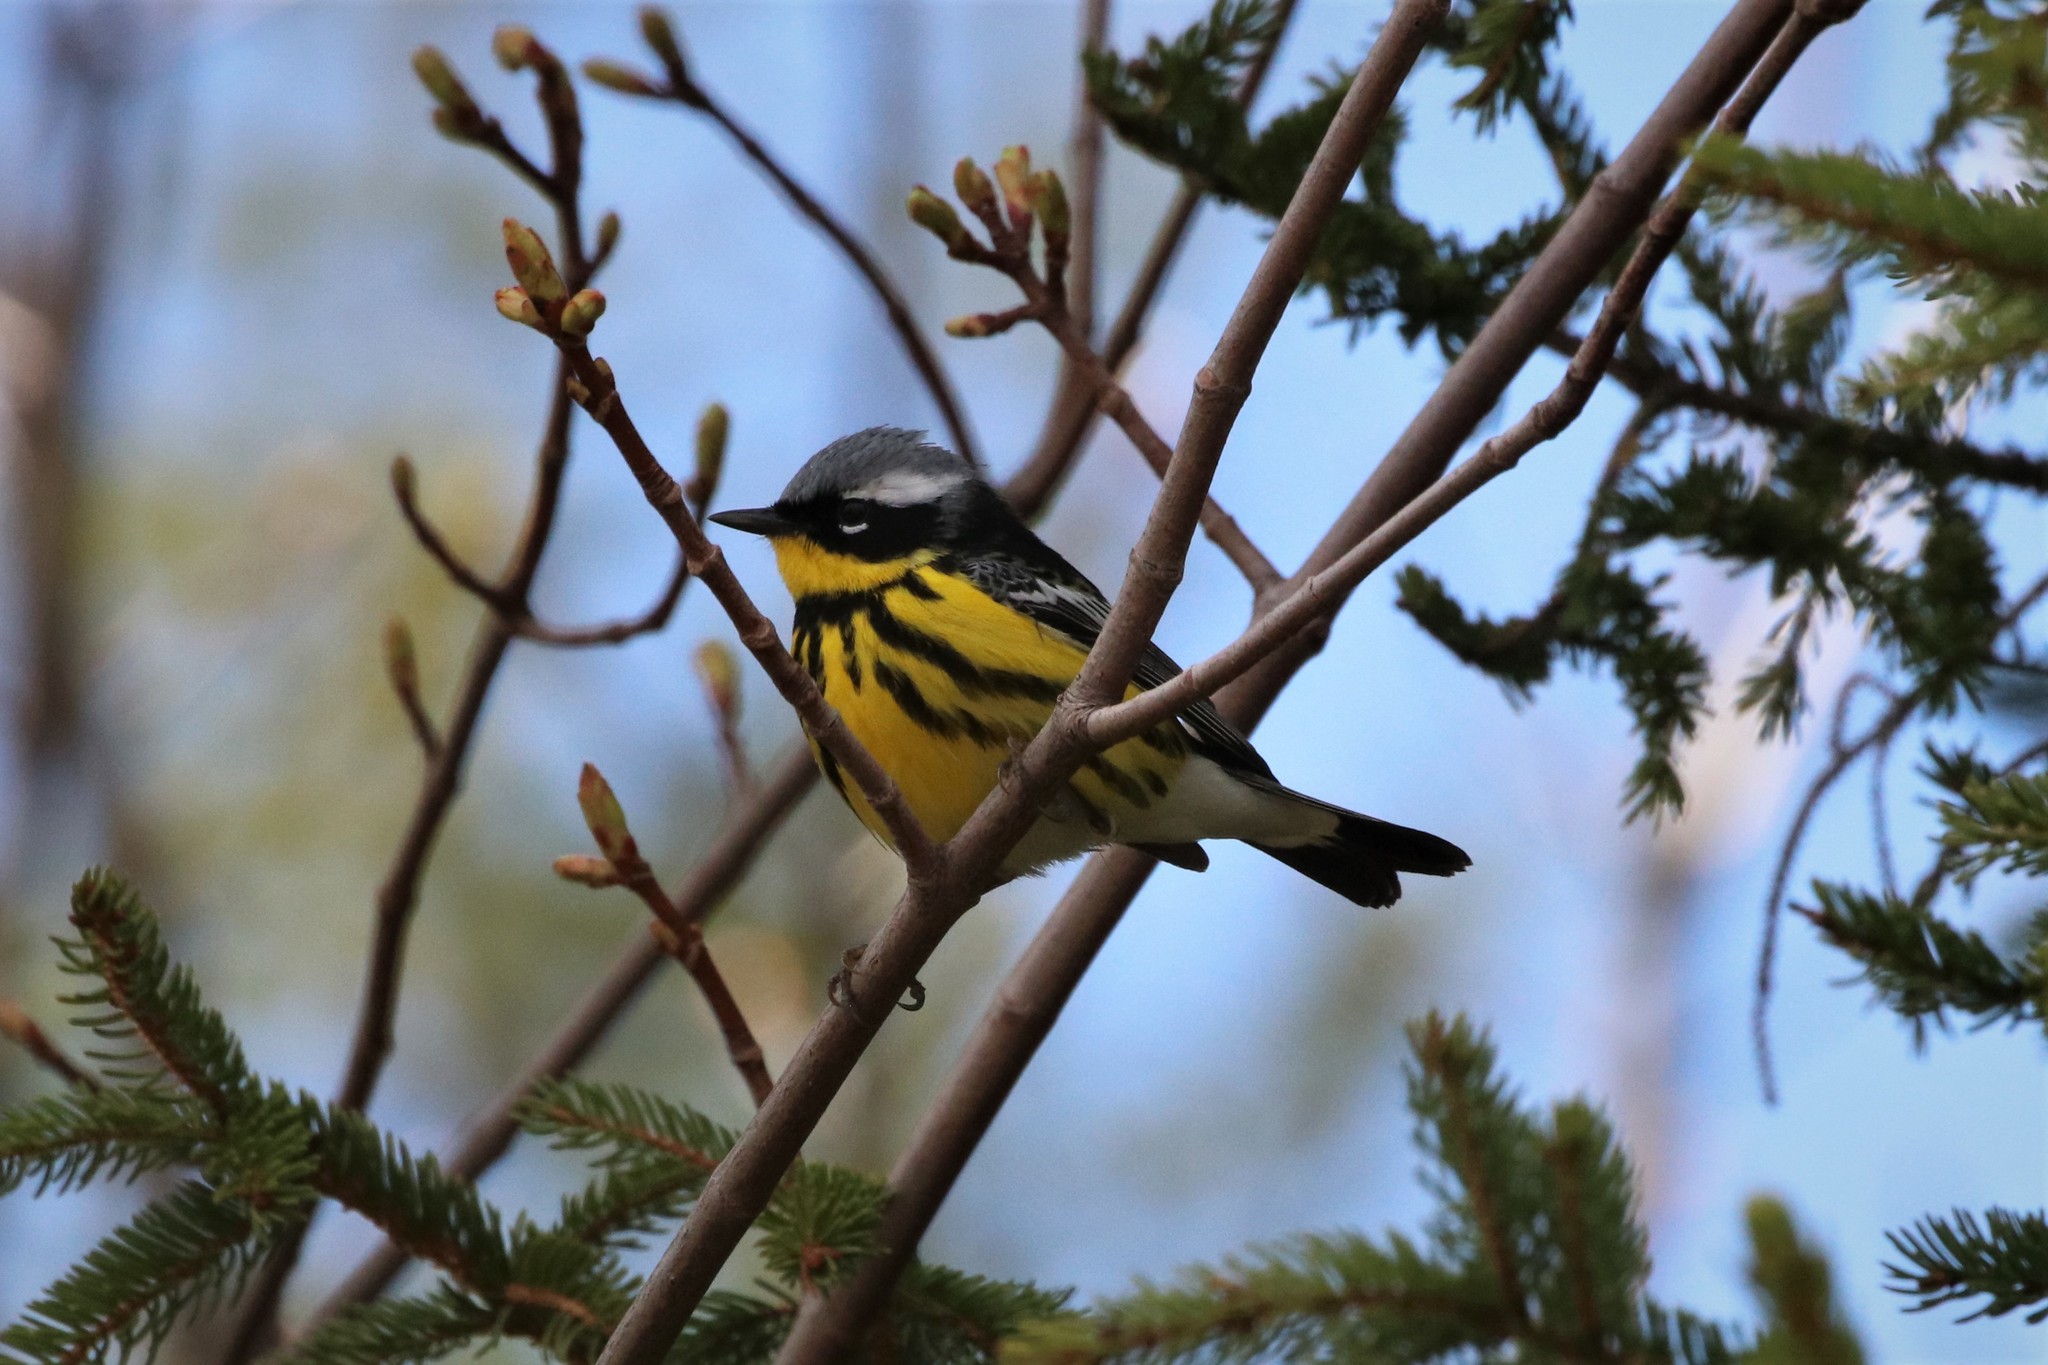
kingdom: Animalia
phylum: Chordata
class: Aves
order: Passeriformes
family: Parulidae
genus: Setophaga
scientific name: Setophaga magnolia
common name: Magnolia warbler
